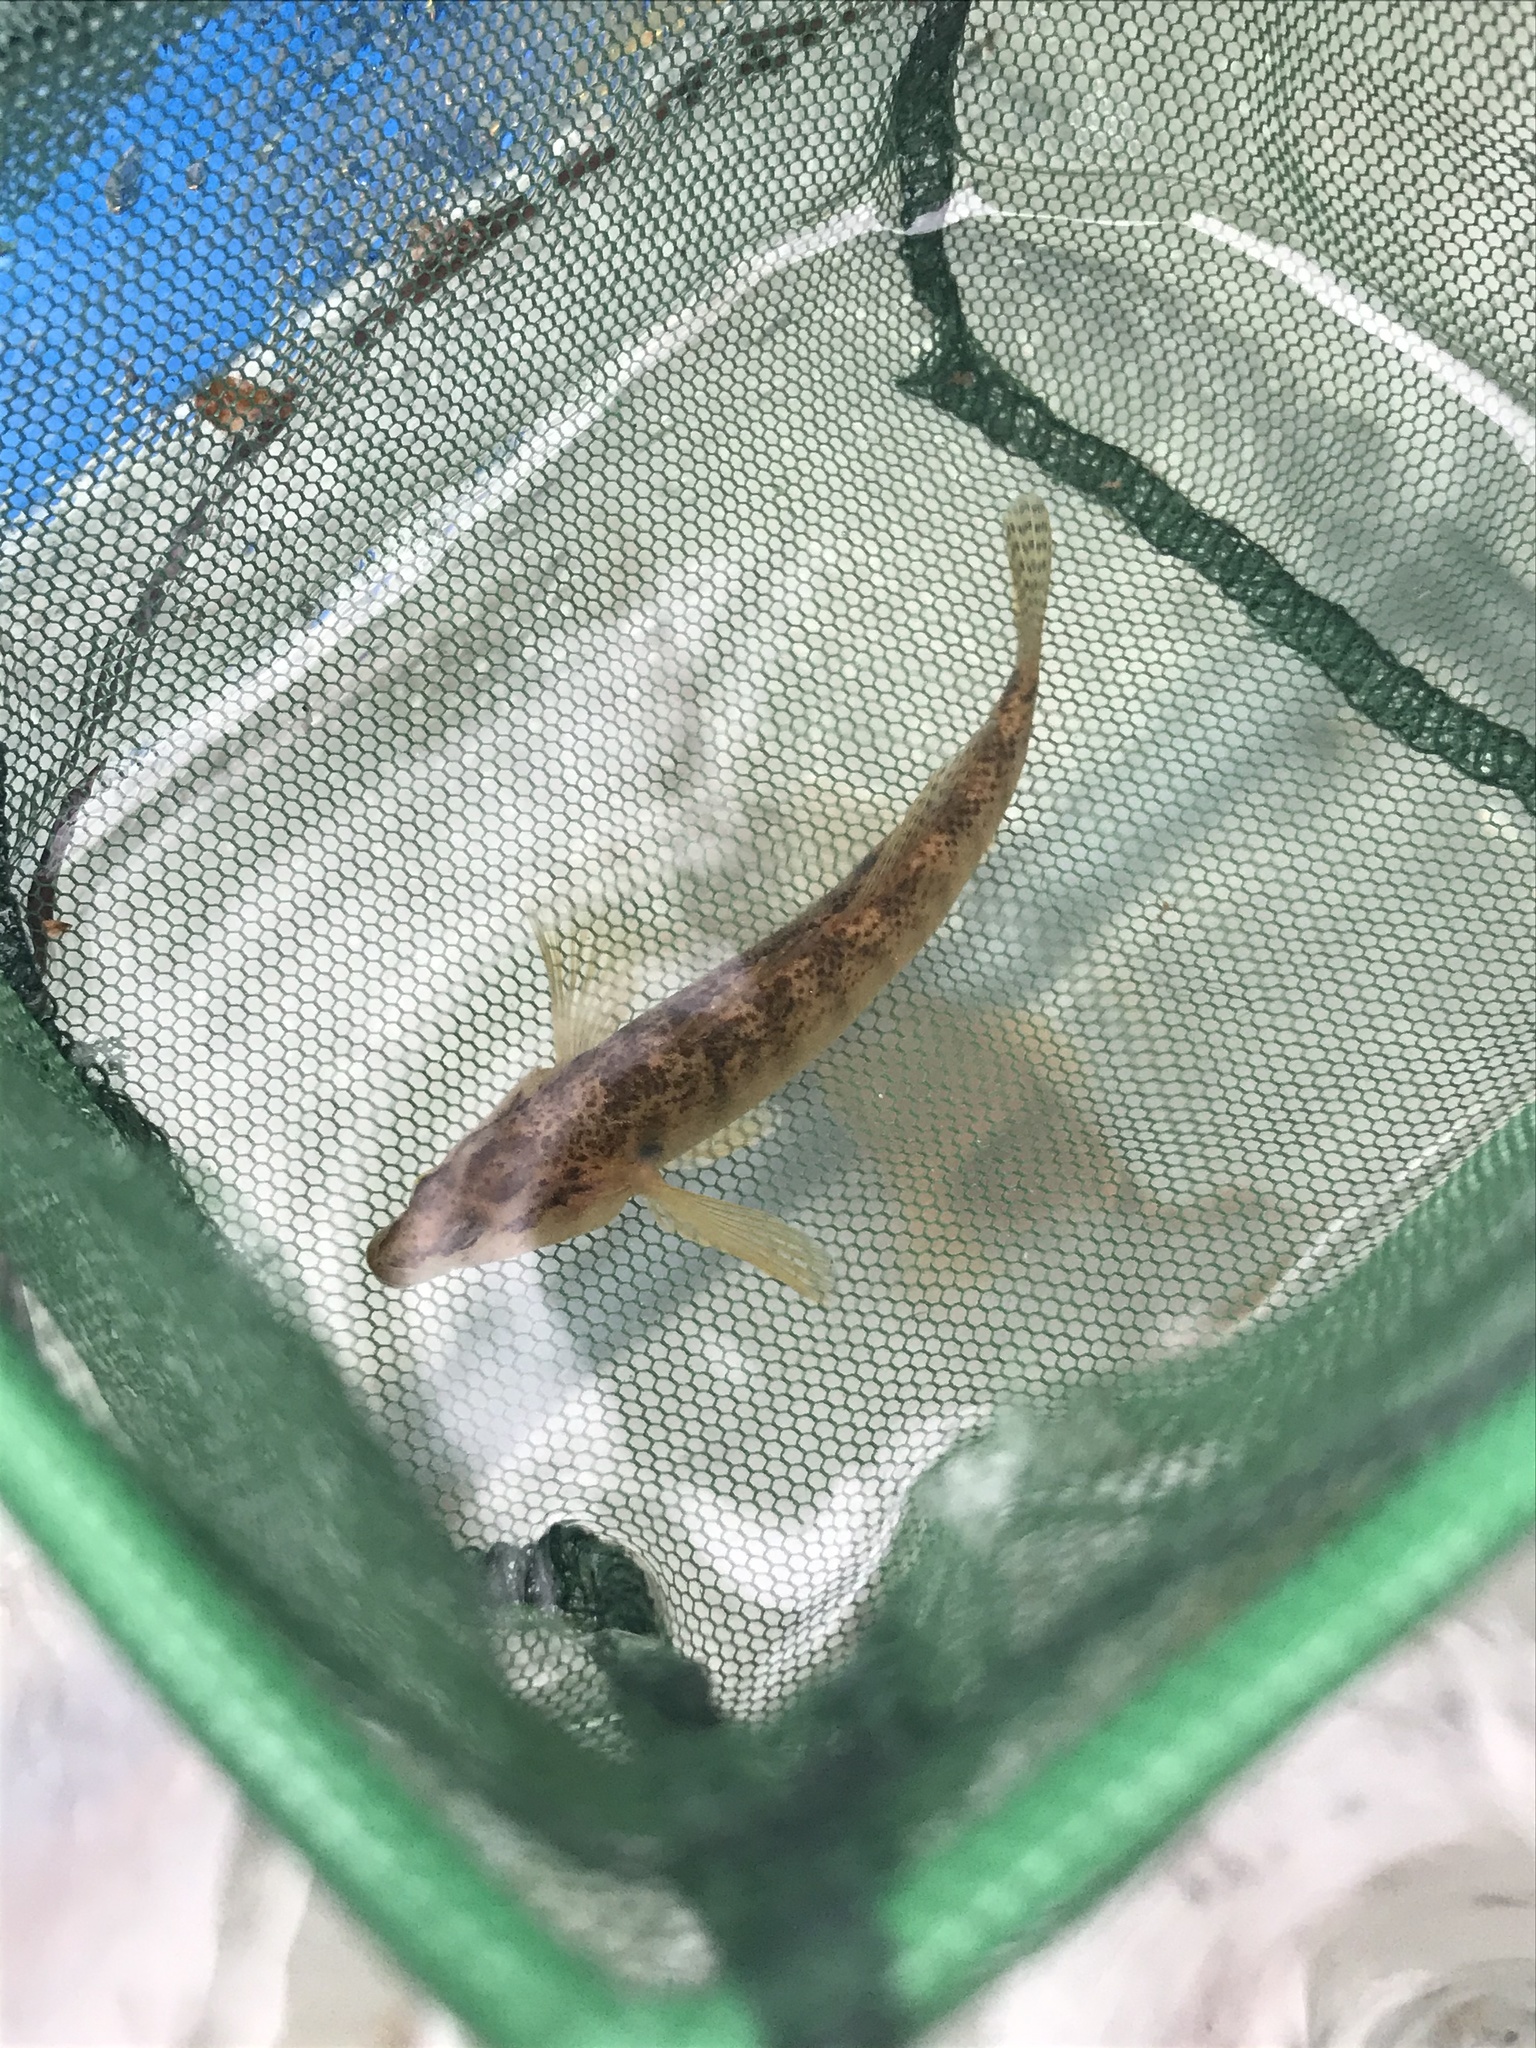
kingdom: Animalia
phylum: Chordata
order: Perciformes
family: Percidae
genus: Etheostoma
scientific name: Etheostoma flabellare
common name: Fantail darter
